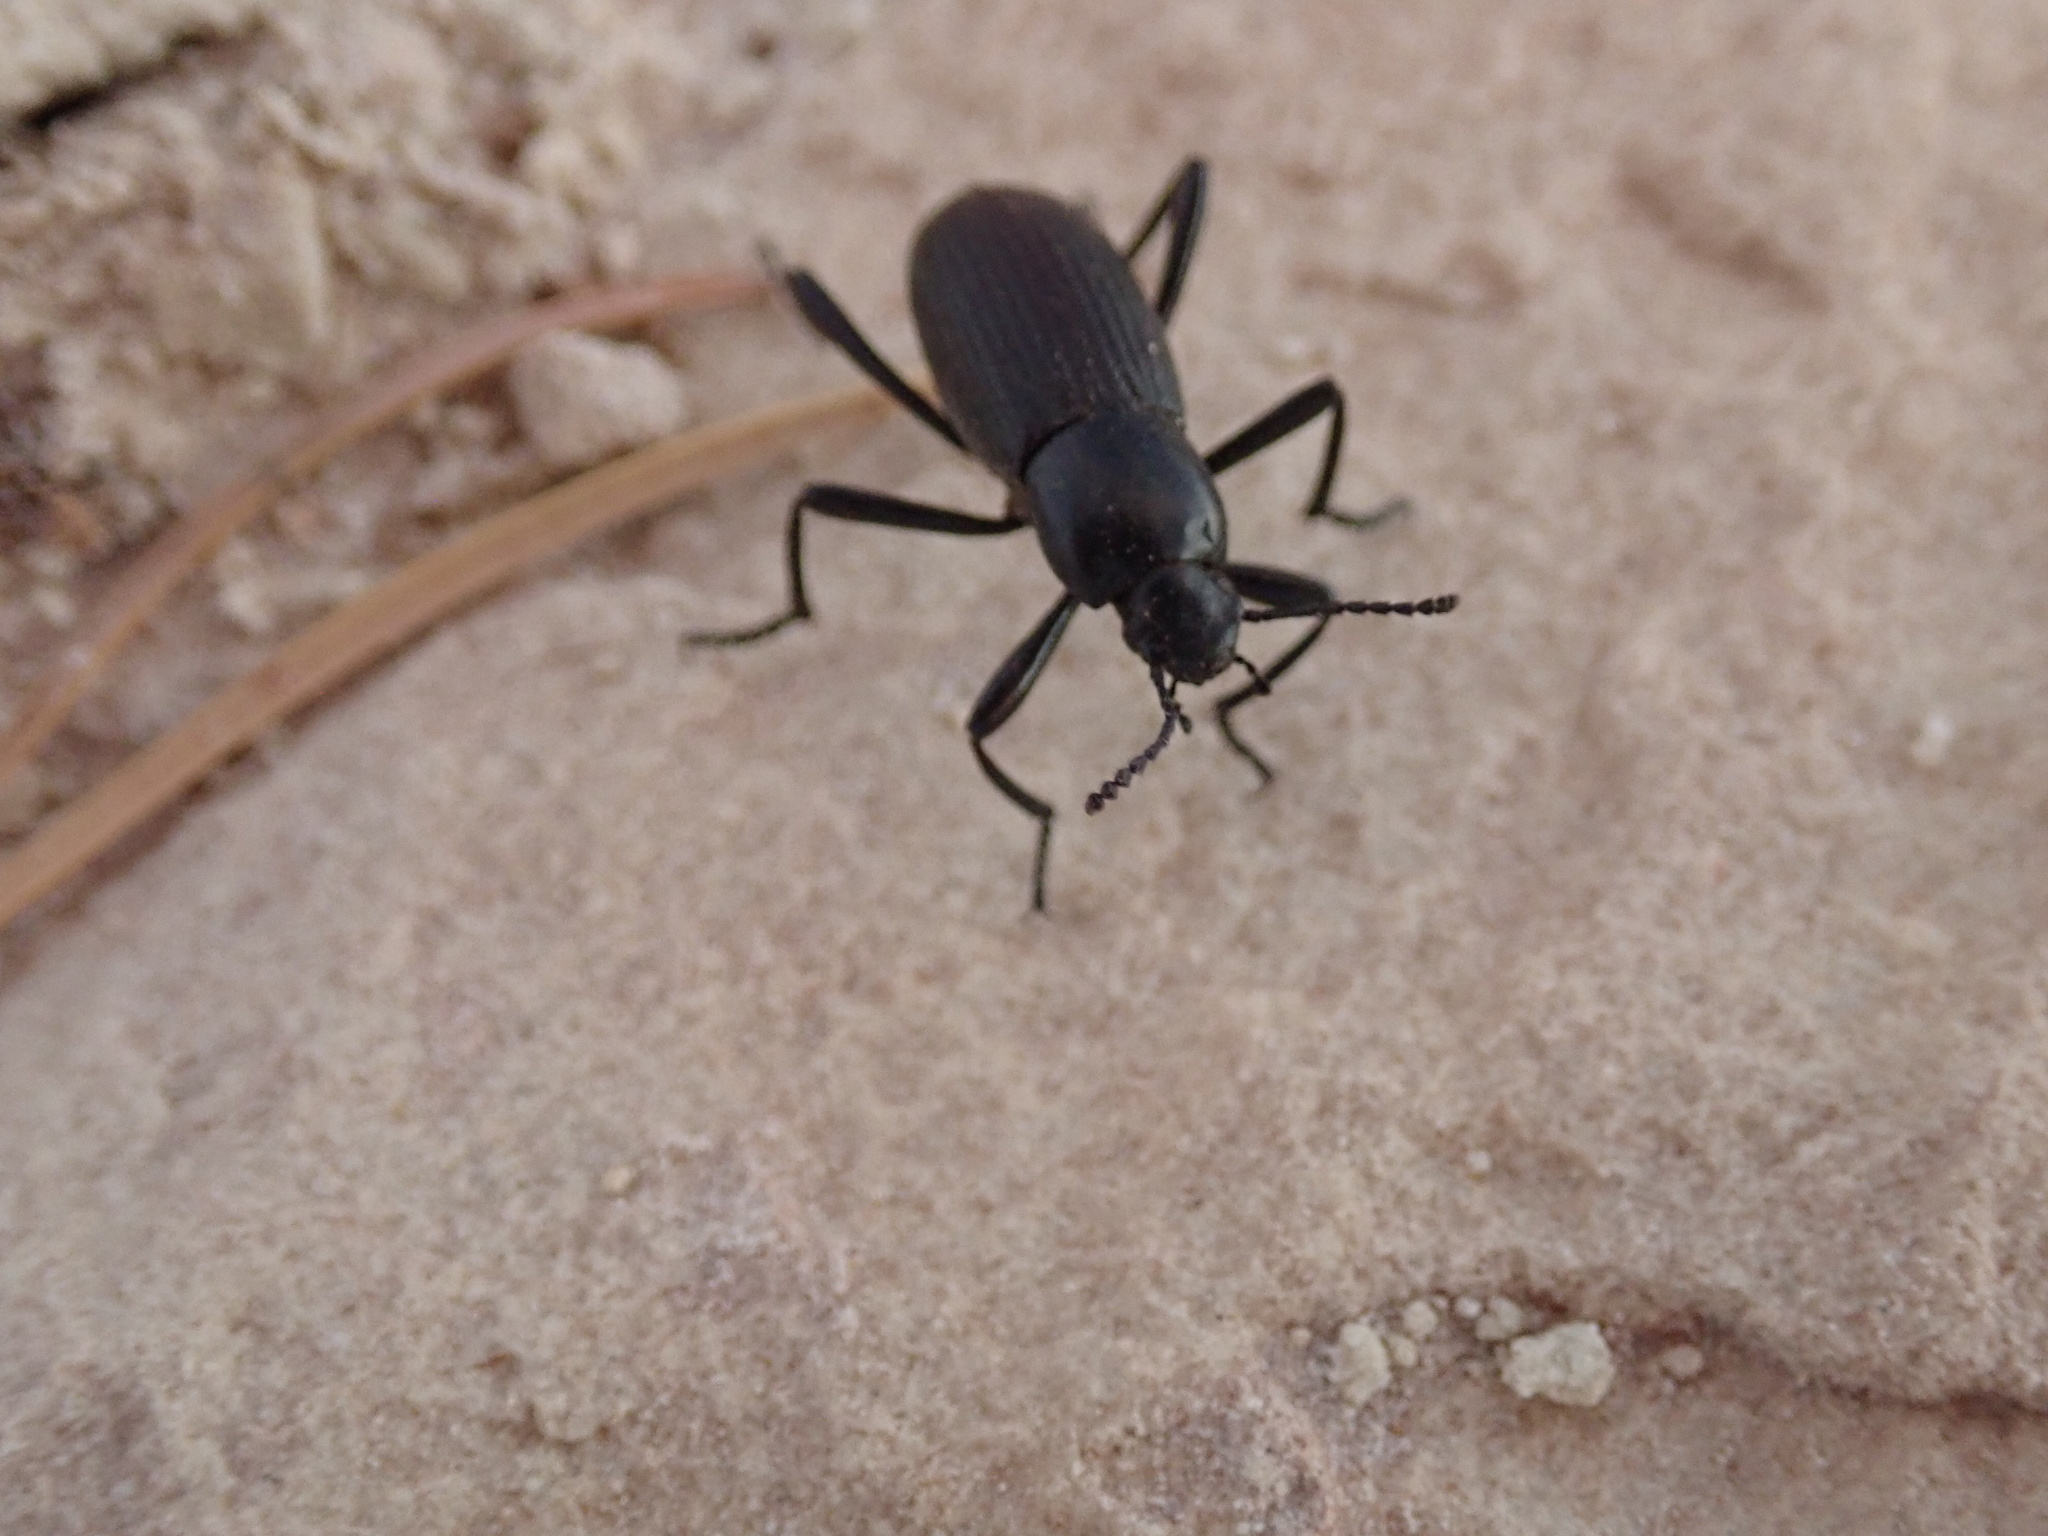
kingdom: Animalia
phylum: Arthropoda
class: Insecta
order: Coleoptera
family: Tenebrionidae
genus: Eleodes
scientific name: Eleodes carbonaria
